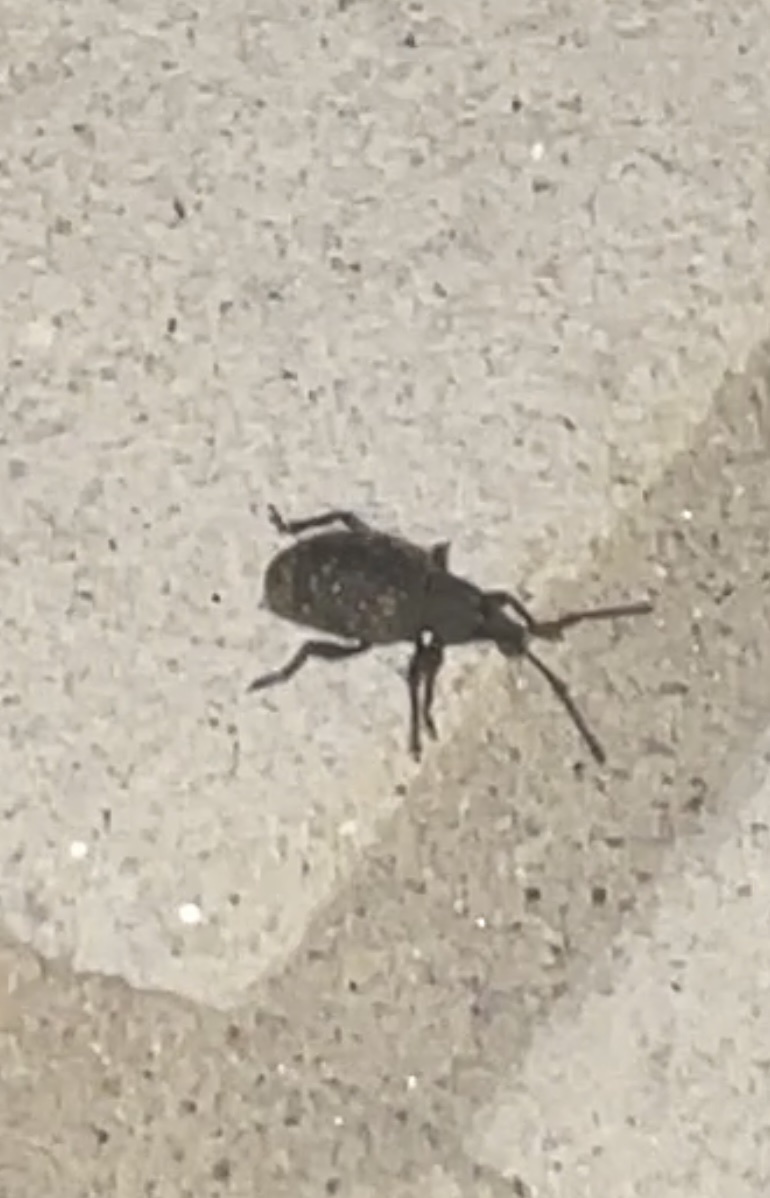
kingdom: Animalia
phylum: Arthropoda
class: Insecta
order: Coleoptera
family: Curculionidae
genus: Otiorhynchus
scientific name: Otiorhynchus sulcatus
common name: Black vine weevil
